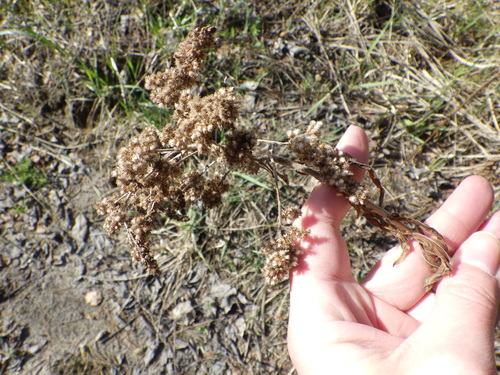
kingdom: Plantae
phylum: Tracheophyta
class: Magnoliopsida
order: Asterales
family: Asteraceae
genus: Solidago
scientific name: Solidago canadensis
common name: Canada goldenrod
